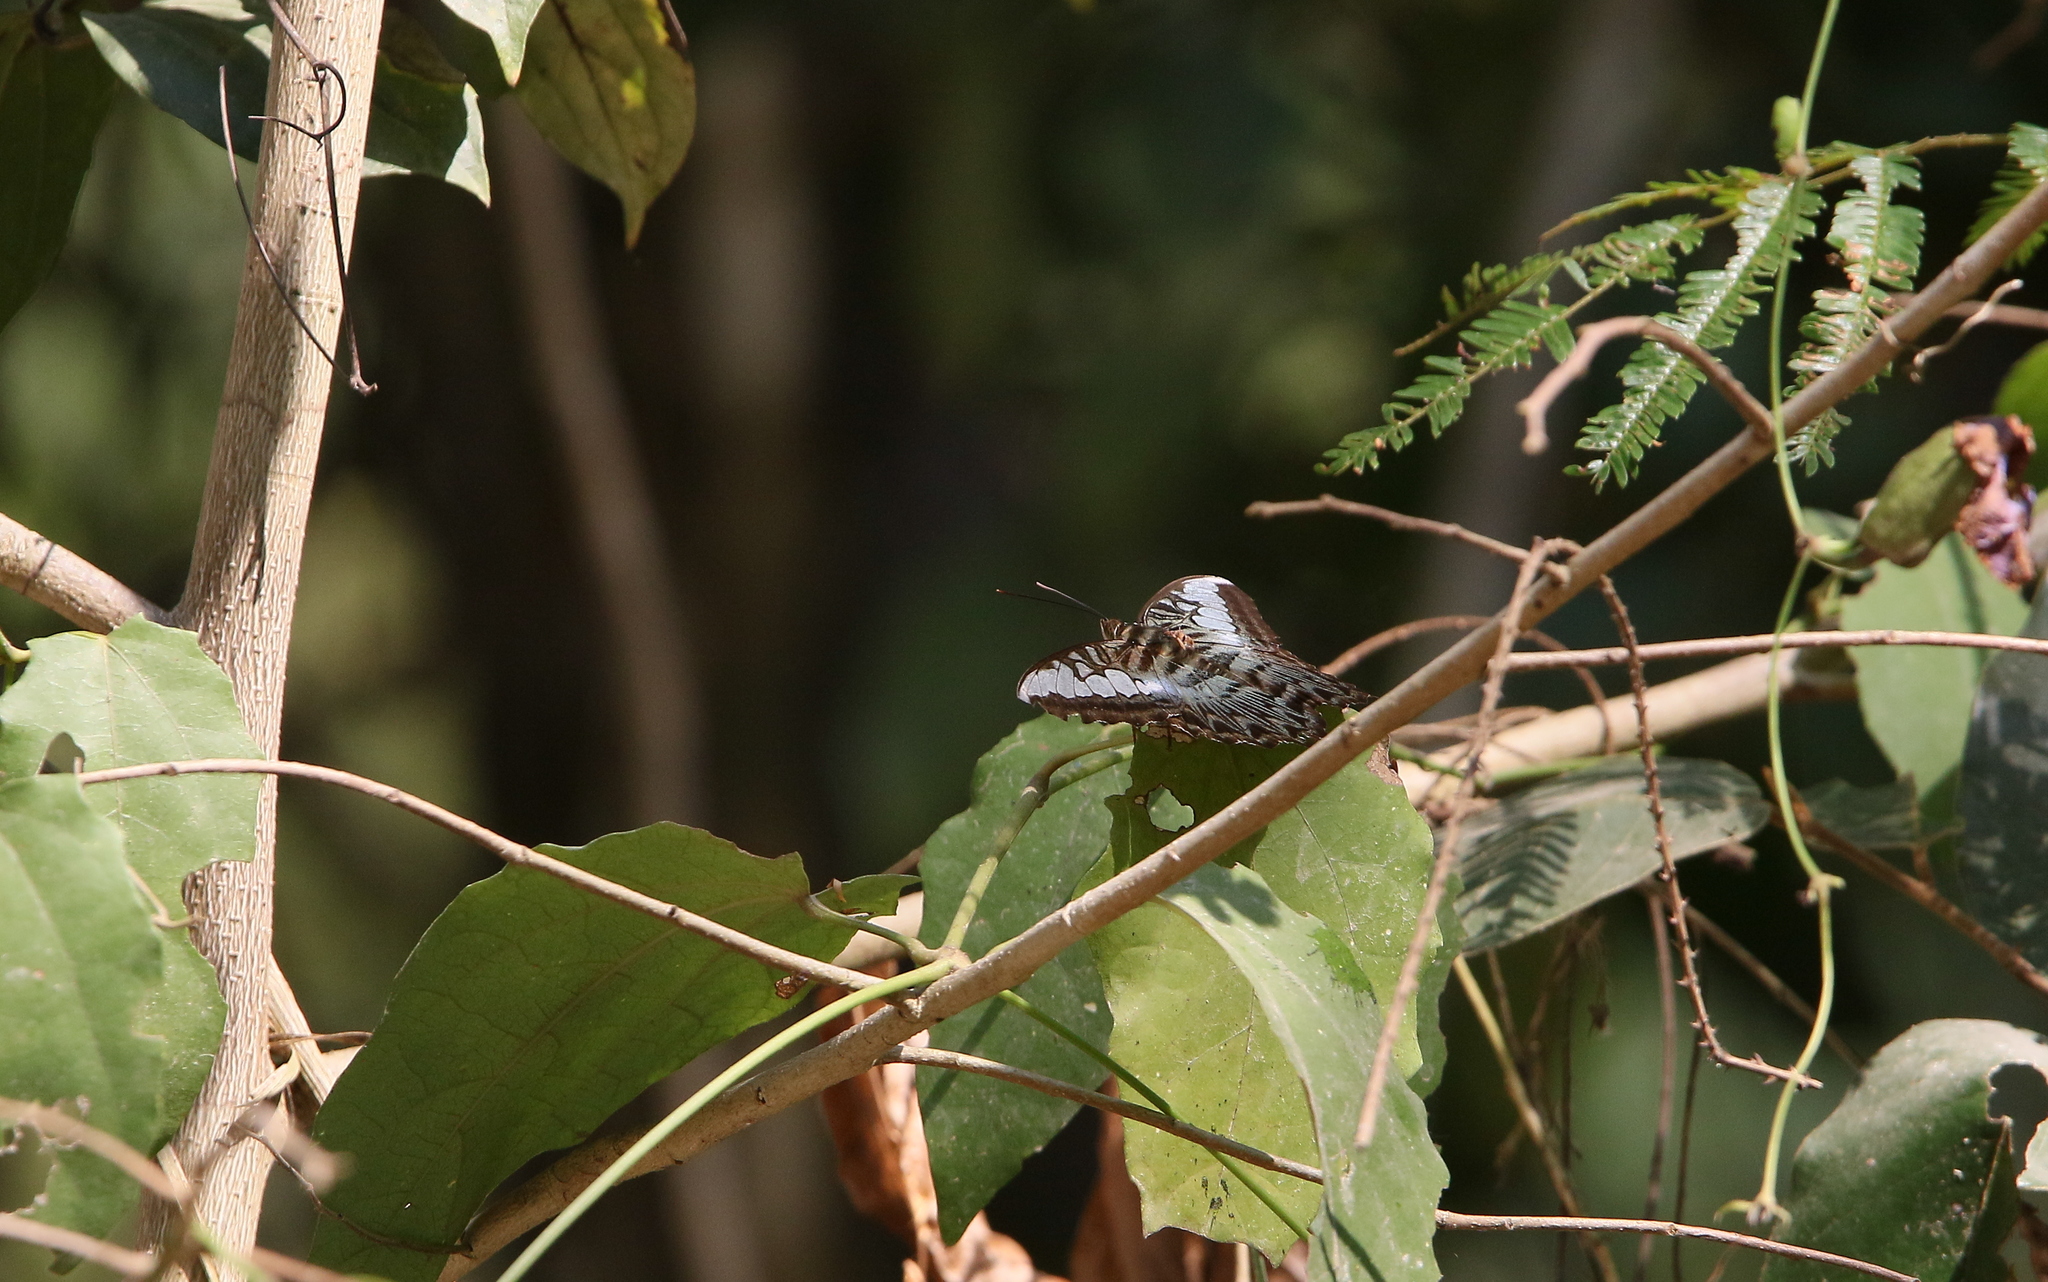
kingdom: Animalia
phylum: Arthropoda
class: Insecta
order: Lepidoptera
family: Nymphalidae
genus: Kallima
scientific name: Kallima sylvia
